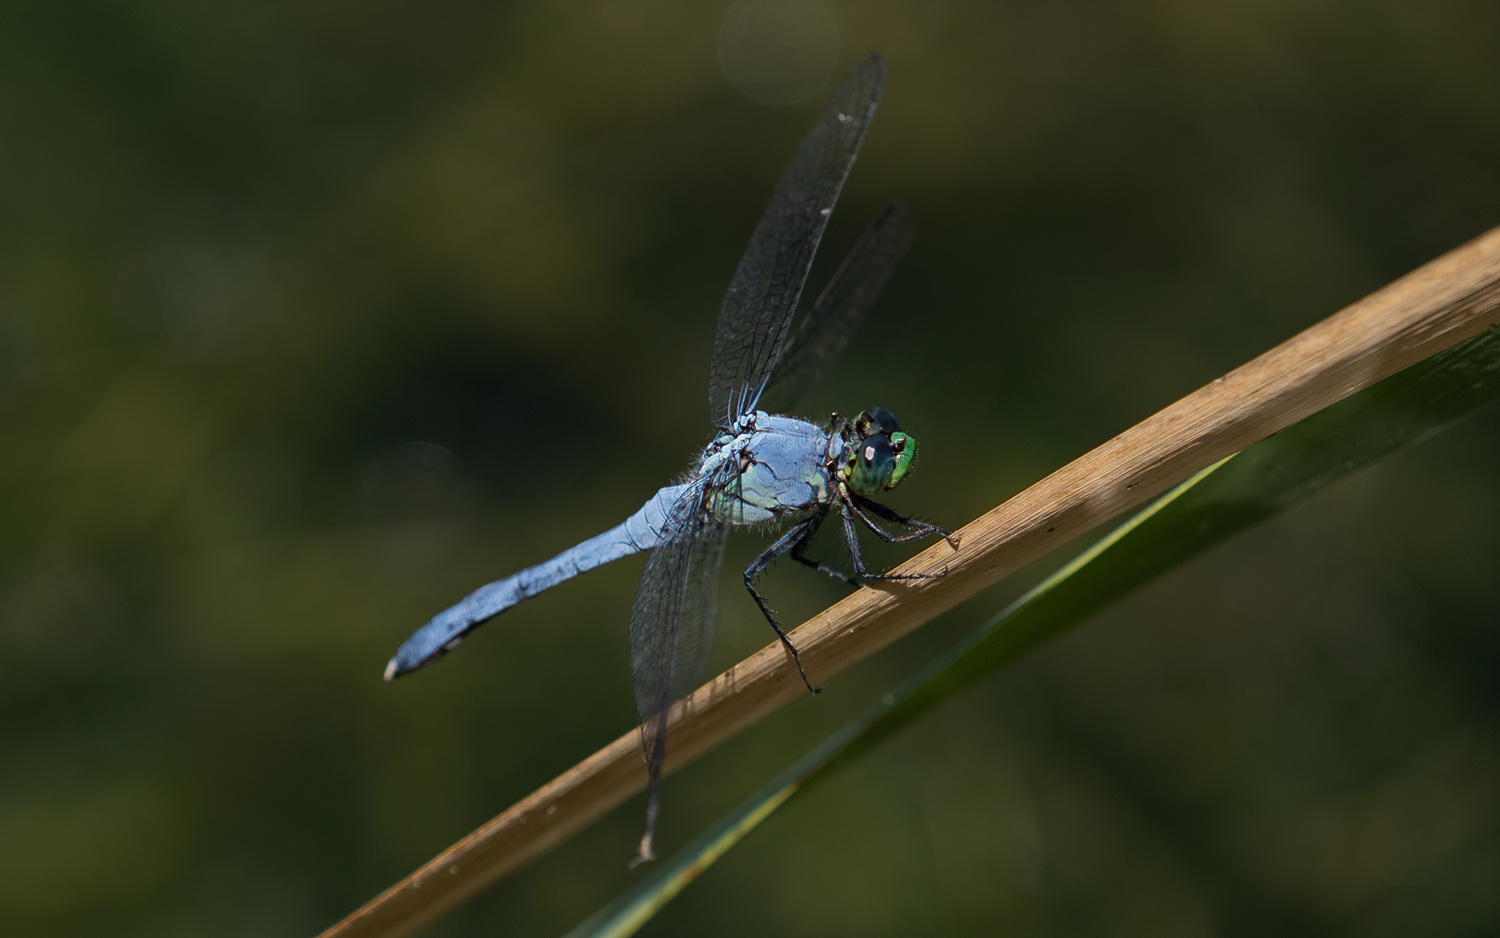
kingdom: Animalia
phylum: Arthropoda
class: Insecta
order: Odonata
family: Libellulidae
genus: Erythemis
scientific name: Erythemis simplicicollis
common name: Eastern pondhawk
